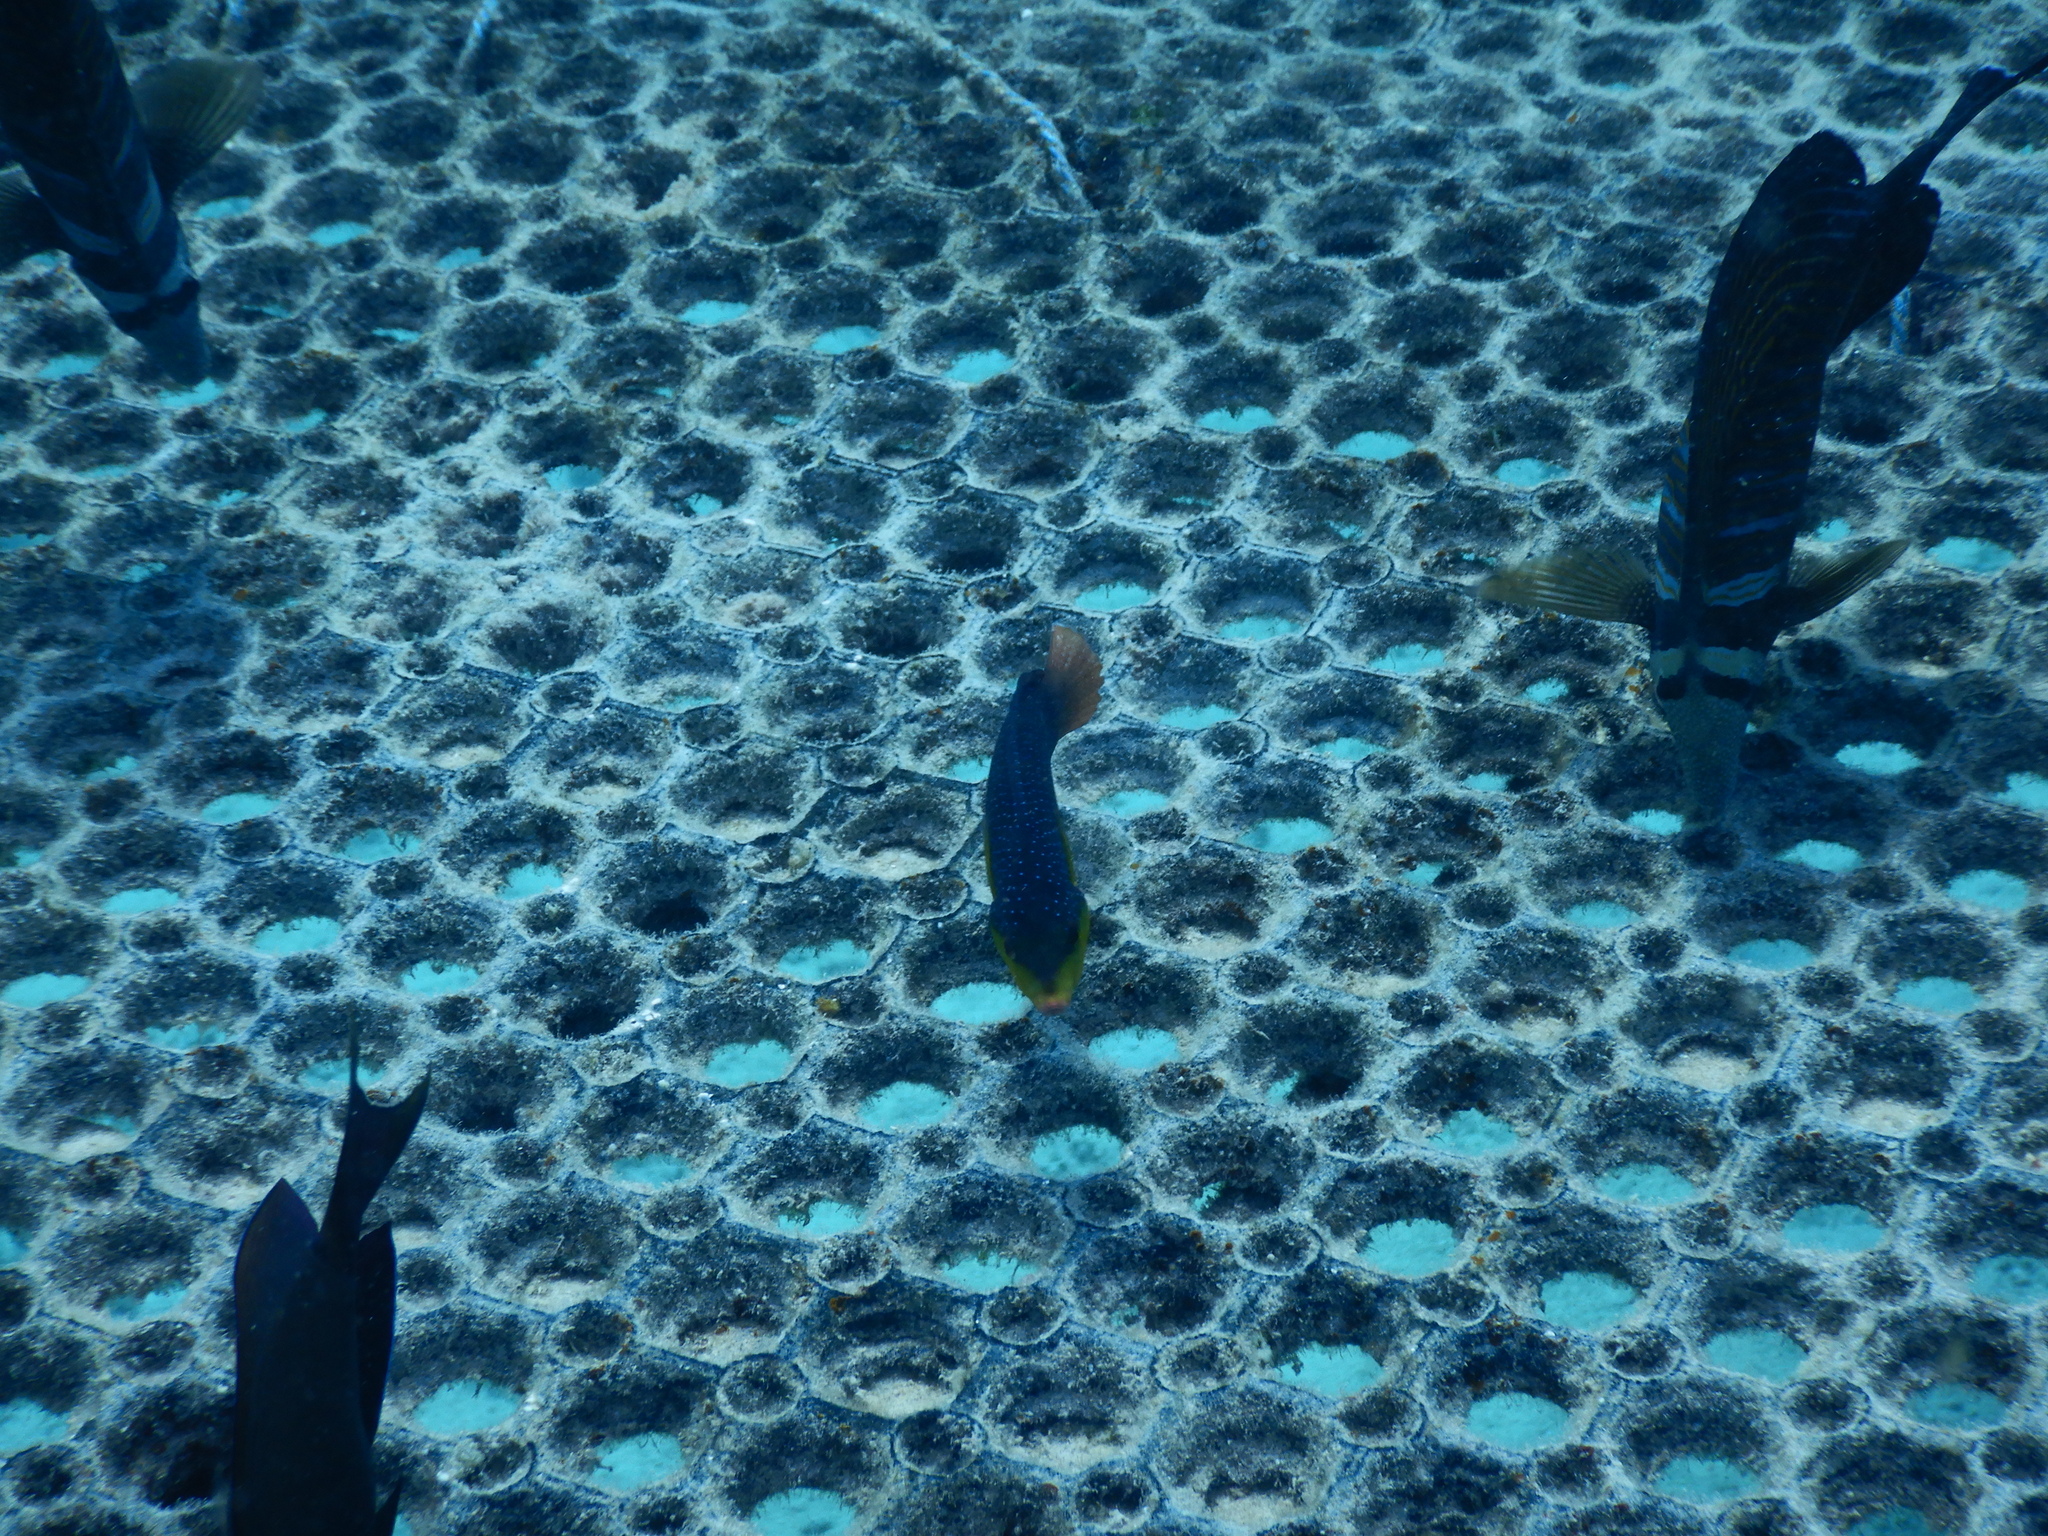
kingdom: Animalia
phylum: Chordata
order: Perciformes
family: Labridae
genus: Anampses
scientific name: Anampses twistii
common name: Yellowbreasted wrasse
